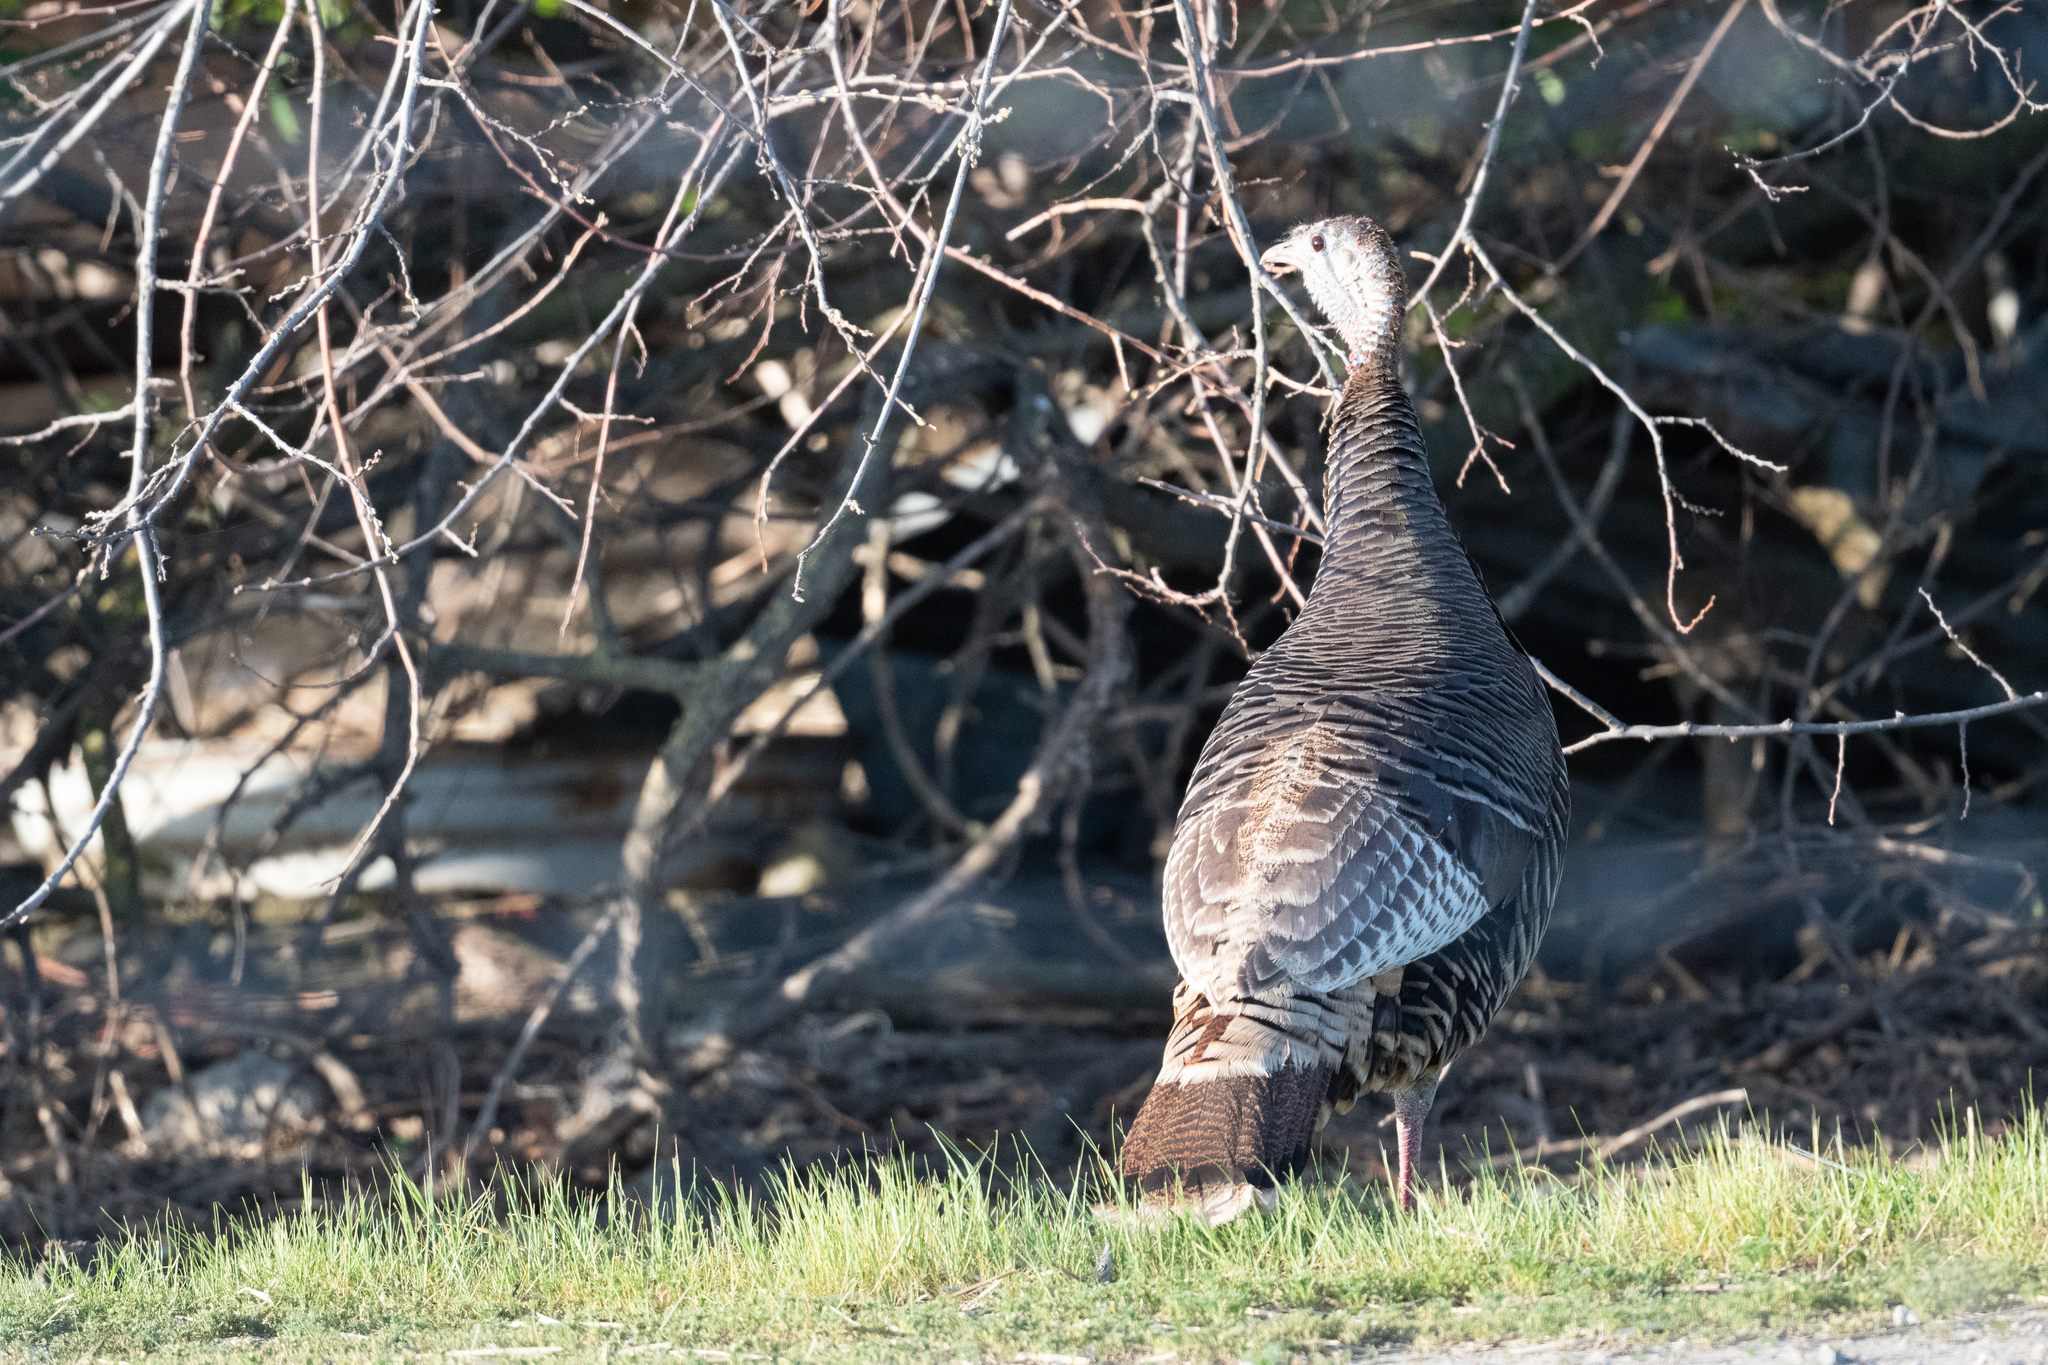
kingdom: Animalia
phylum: Chordata
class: Aves
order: Galliformes
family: Phasianidae
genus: Meleagris
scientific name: Meleagris gallopavo
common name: Wild turkey
